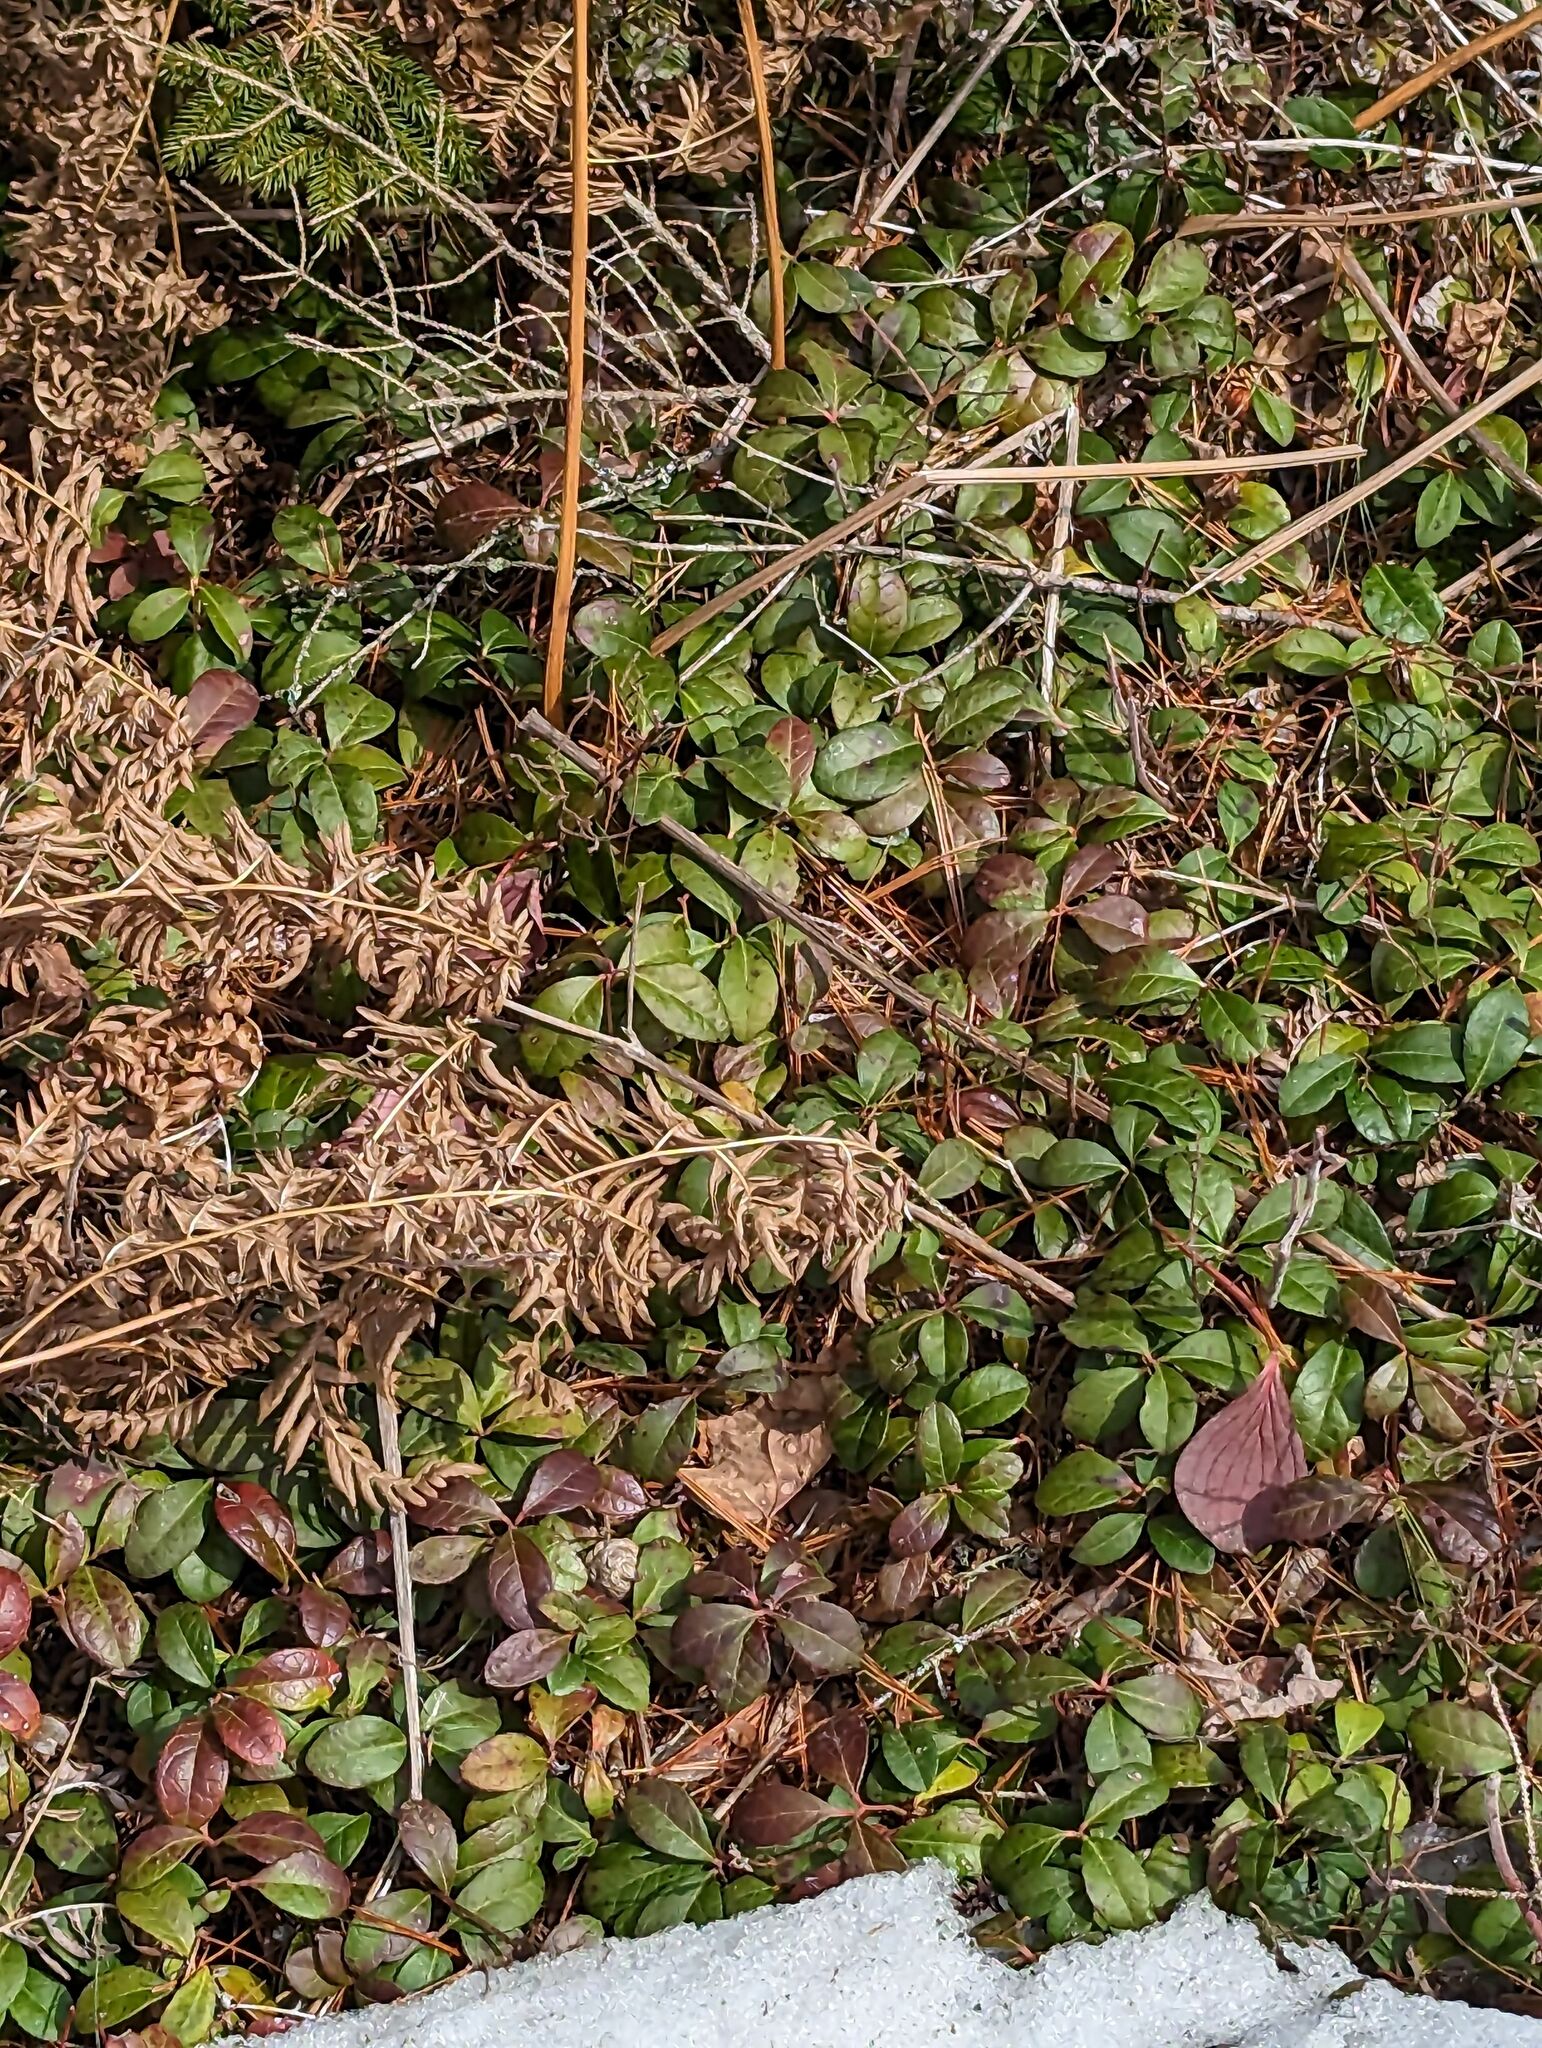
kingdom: Plantae
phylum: Tracheophyta
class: Magnoliopsida
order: Ericales
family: Ericaceae
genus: Gaultheria
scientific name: Gaultheria procumbens
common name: Checkerberry
